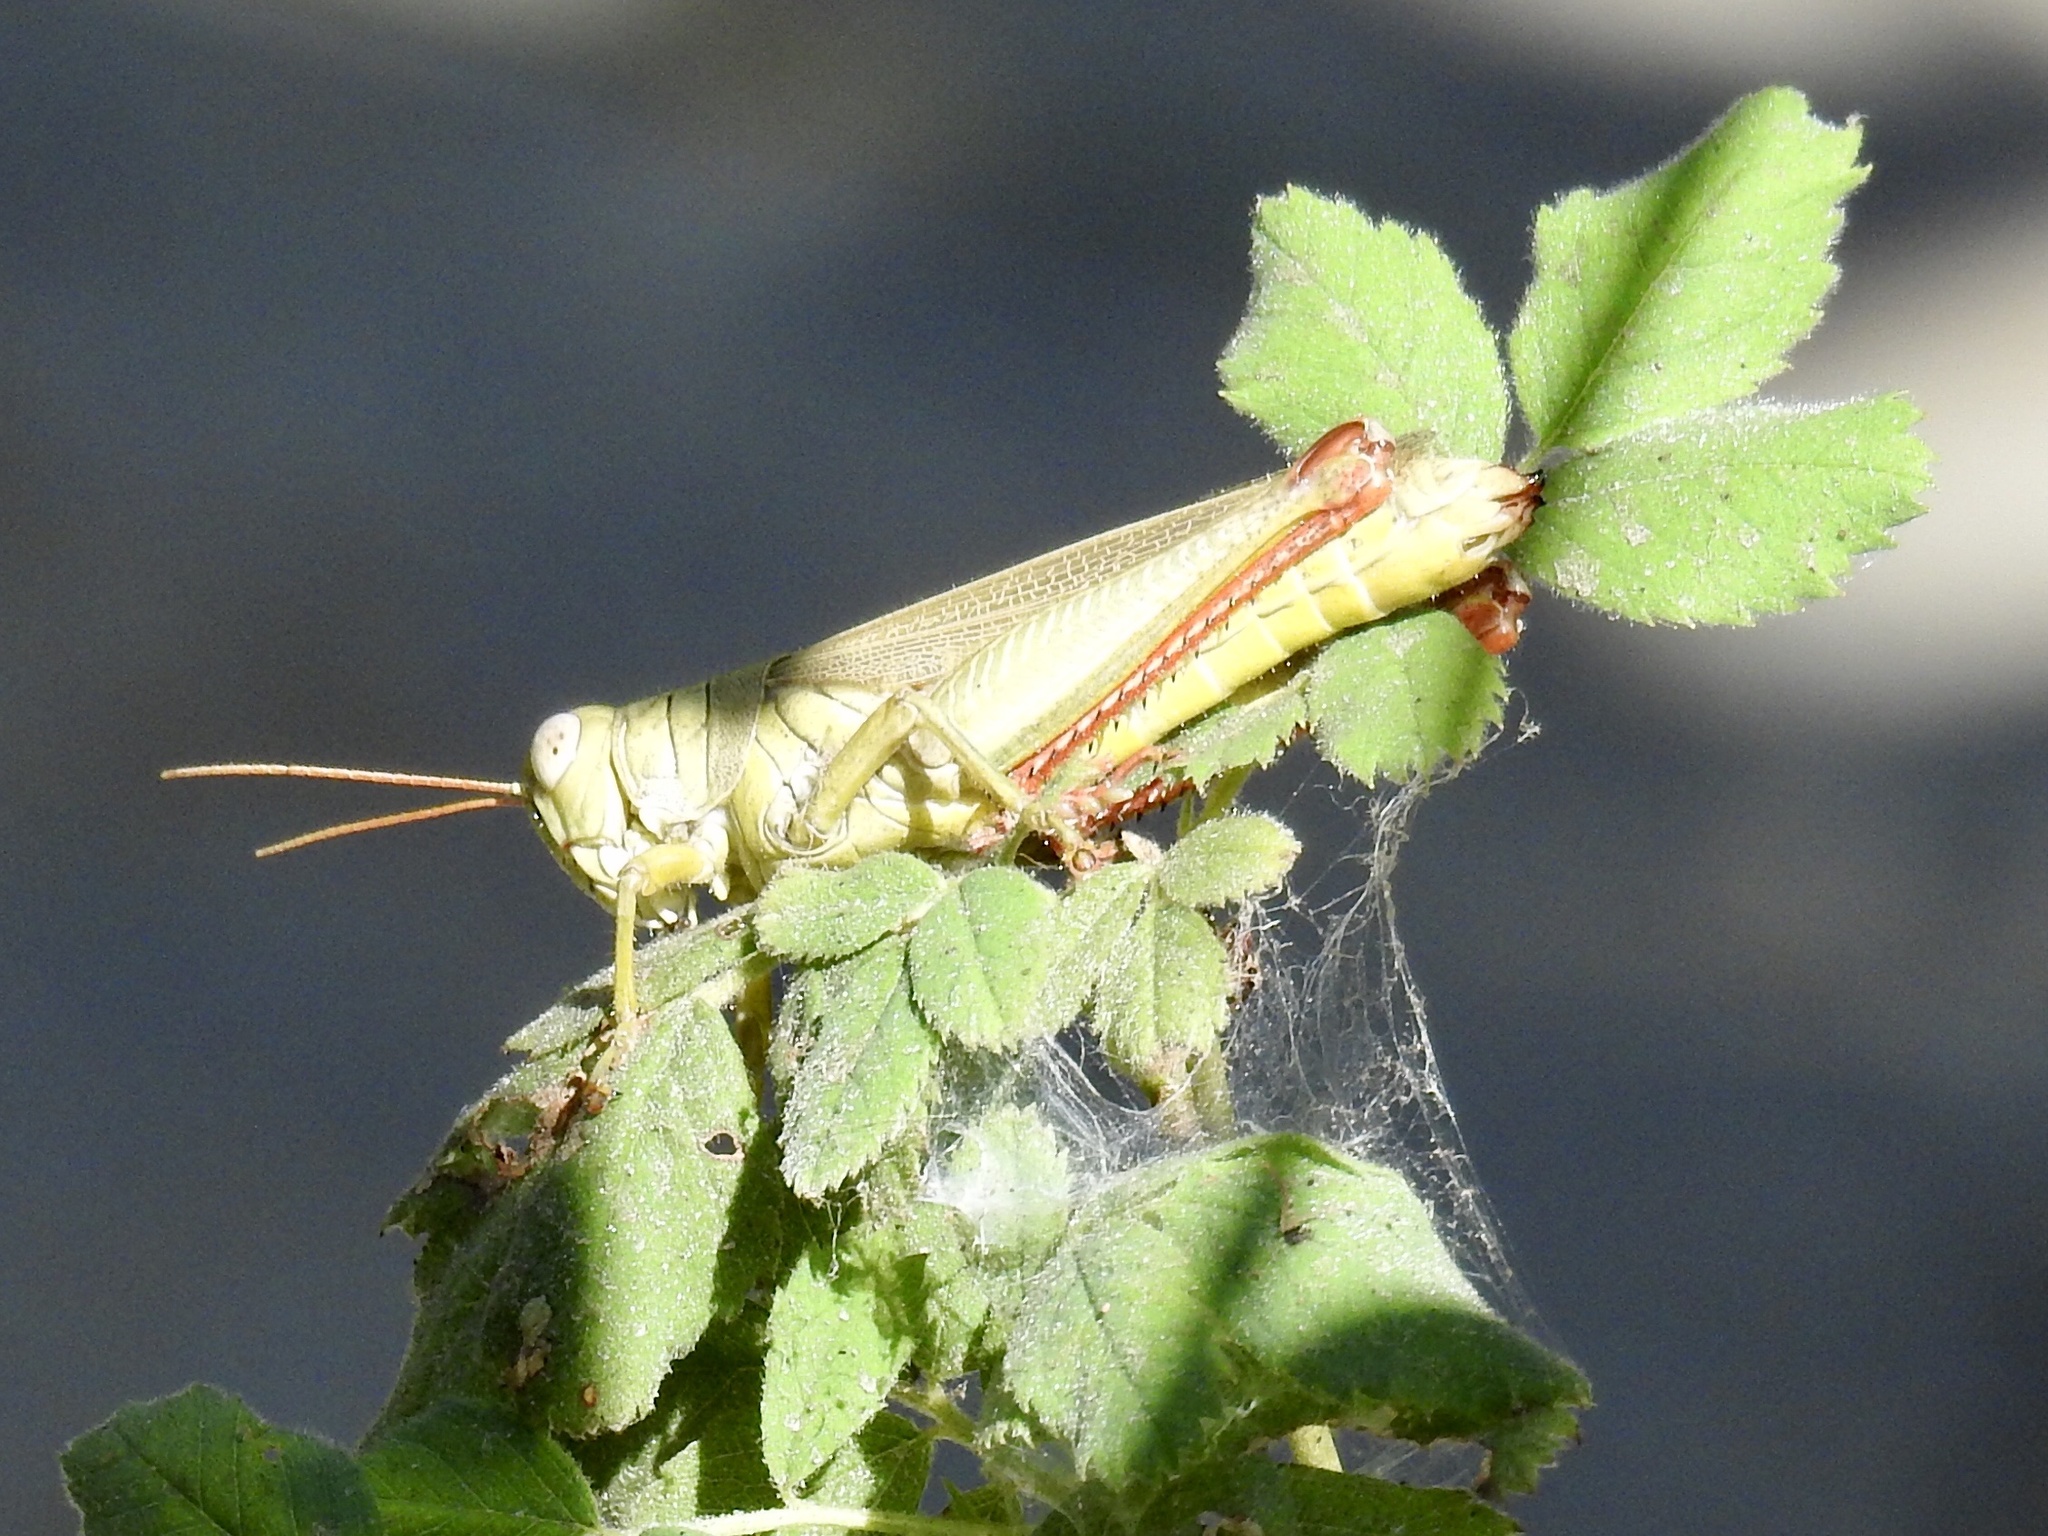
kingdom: Animalia
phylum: Arthropoda
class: Insecta
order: Orthoptera
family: Acrididae
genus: Melanoplus
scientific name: Melanoplus yarrowii
